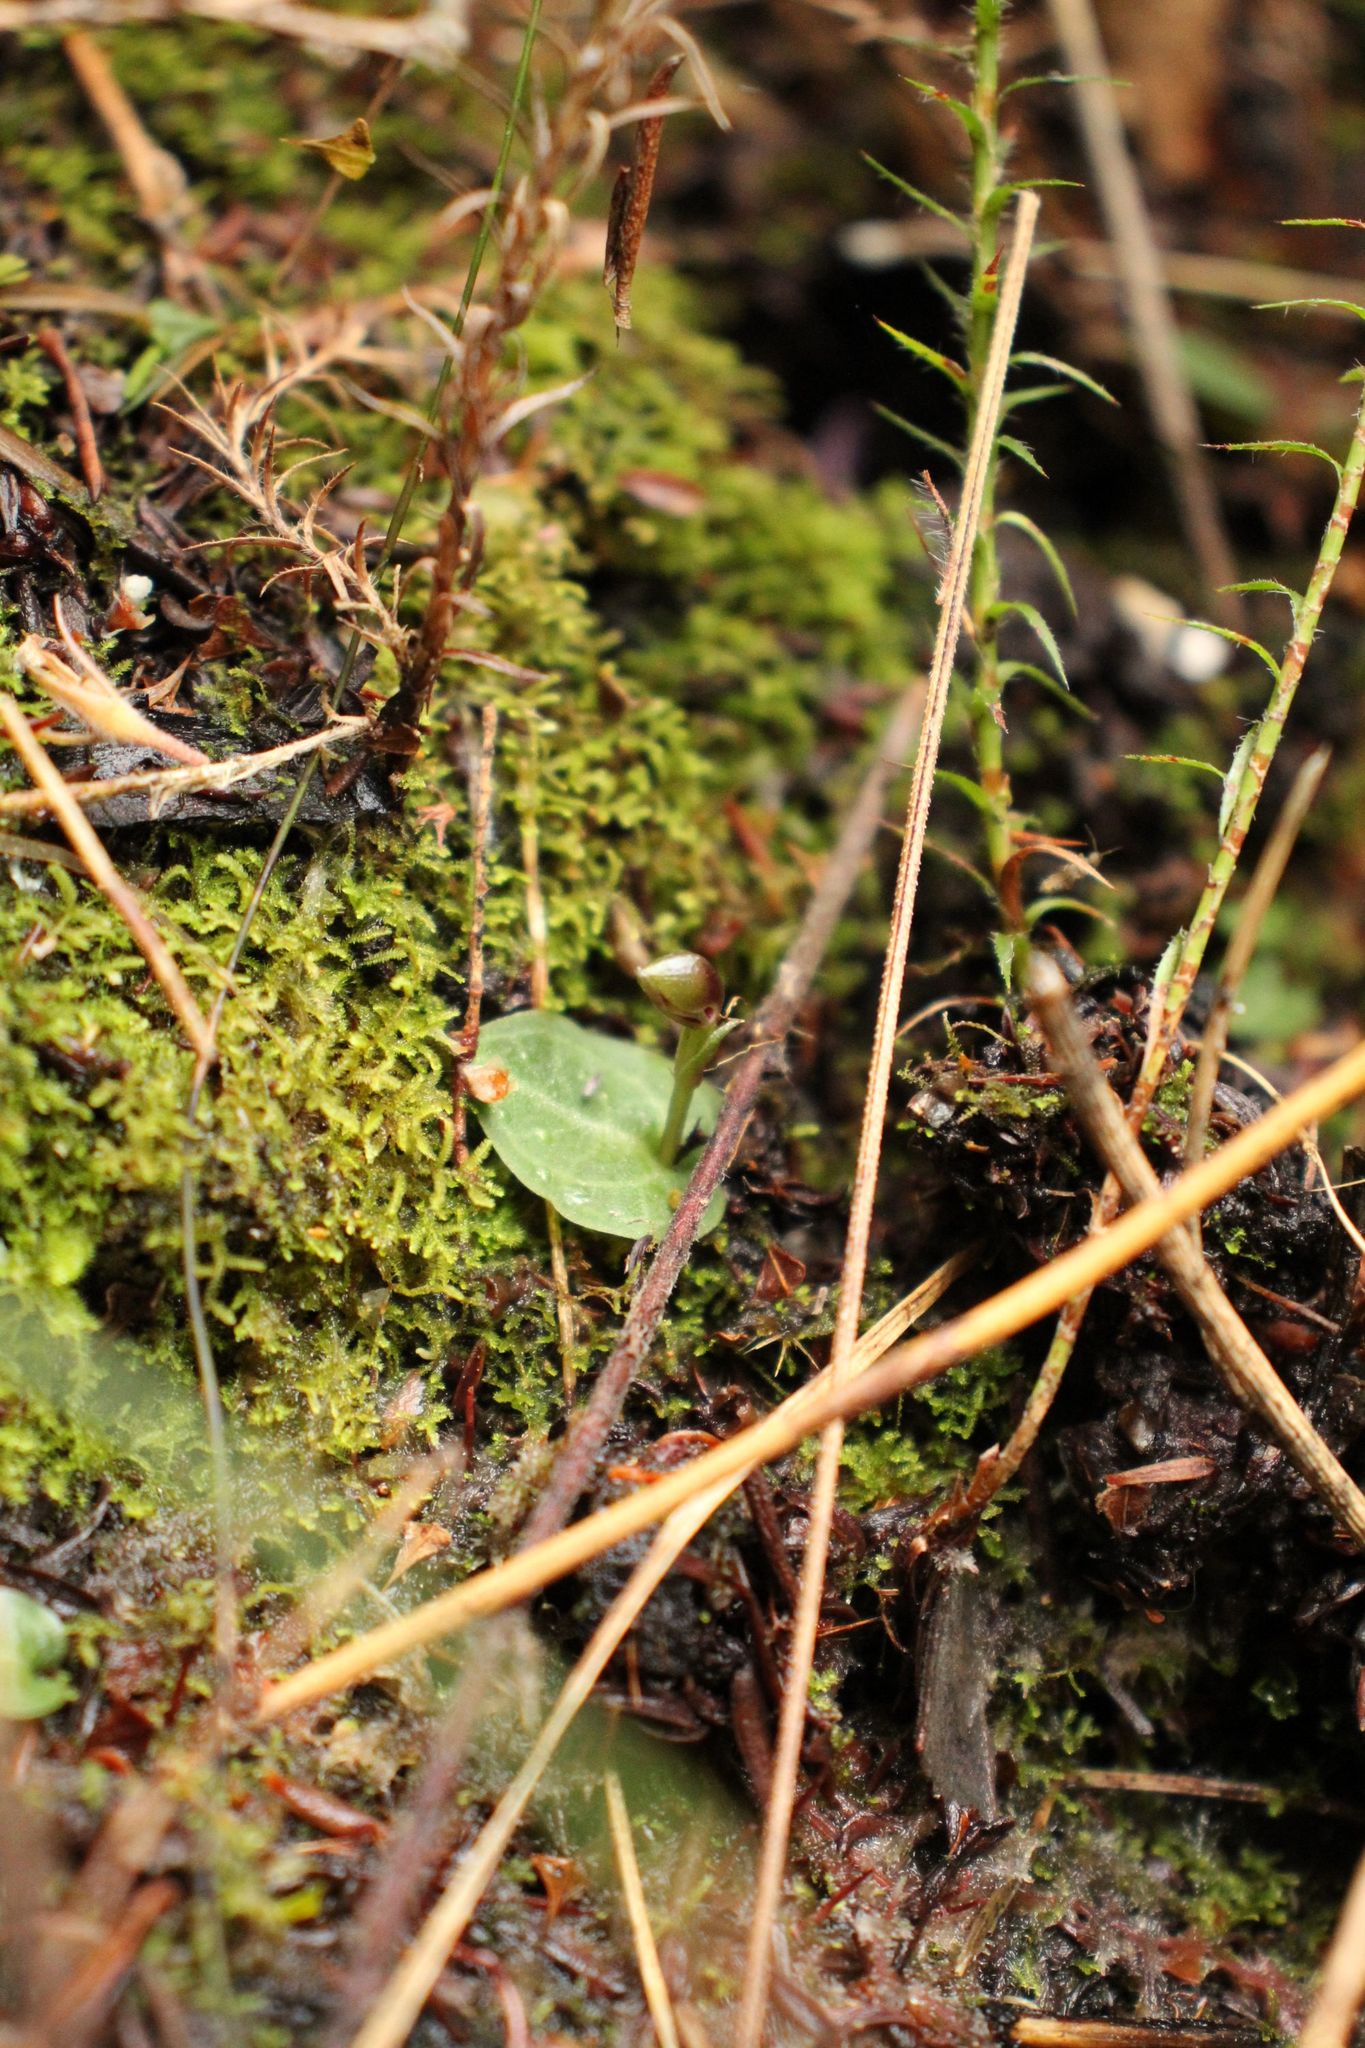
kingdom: Plantae
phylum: Tracheophyta
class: Liliopsida
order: Asparagales
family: Orchidaceae
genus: Corybas
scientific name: Corybas abditus
